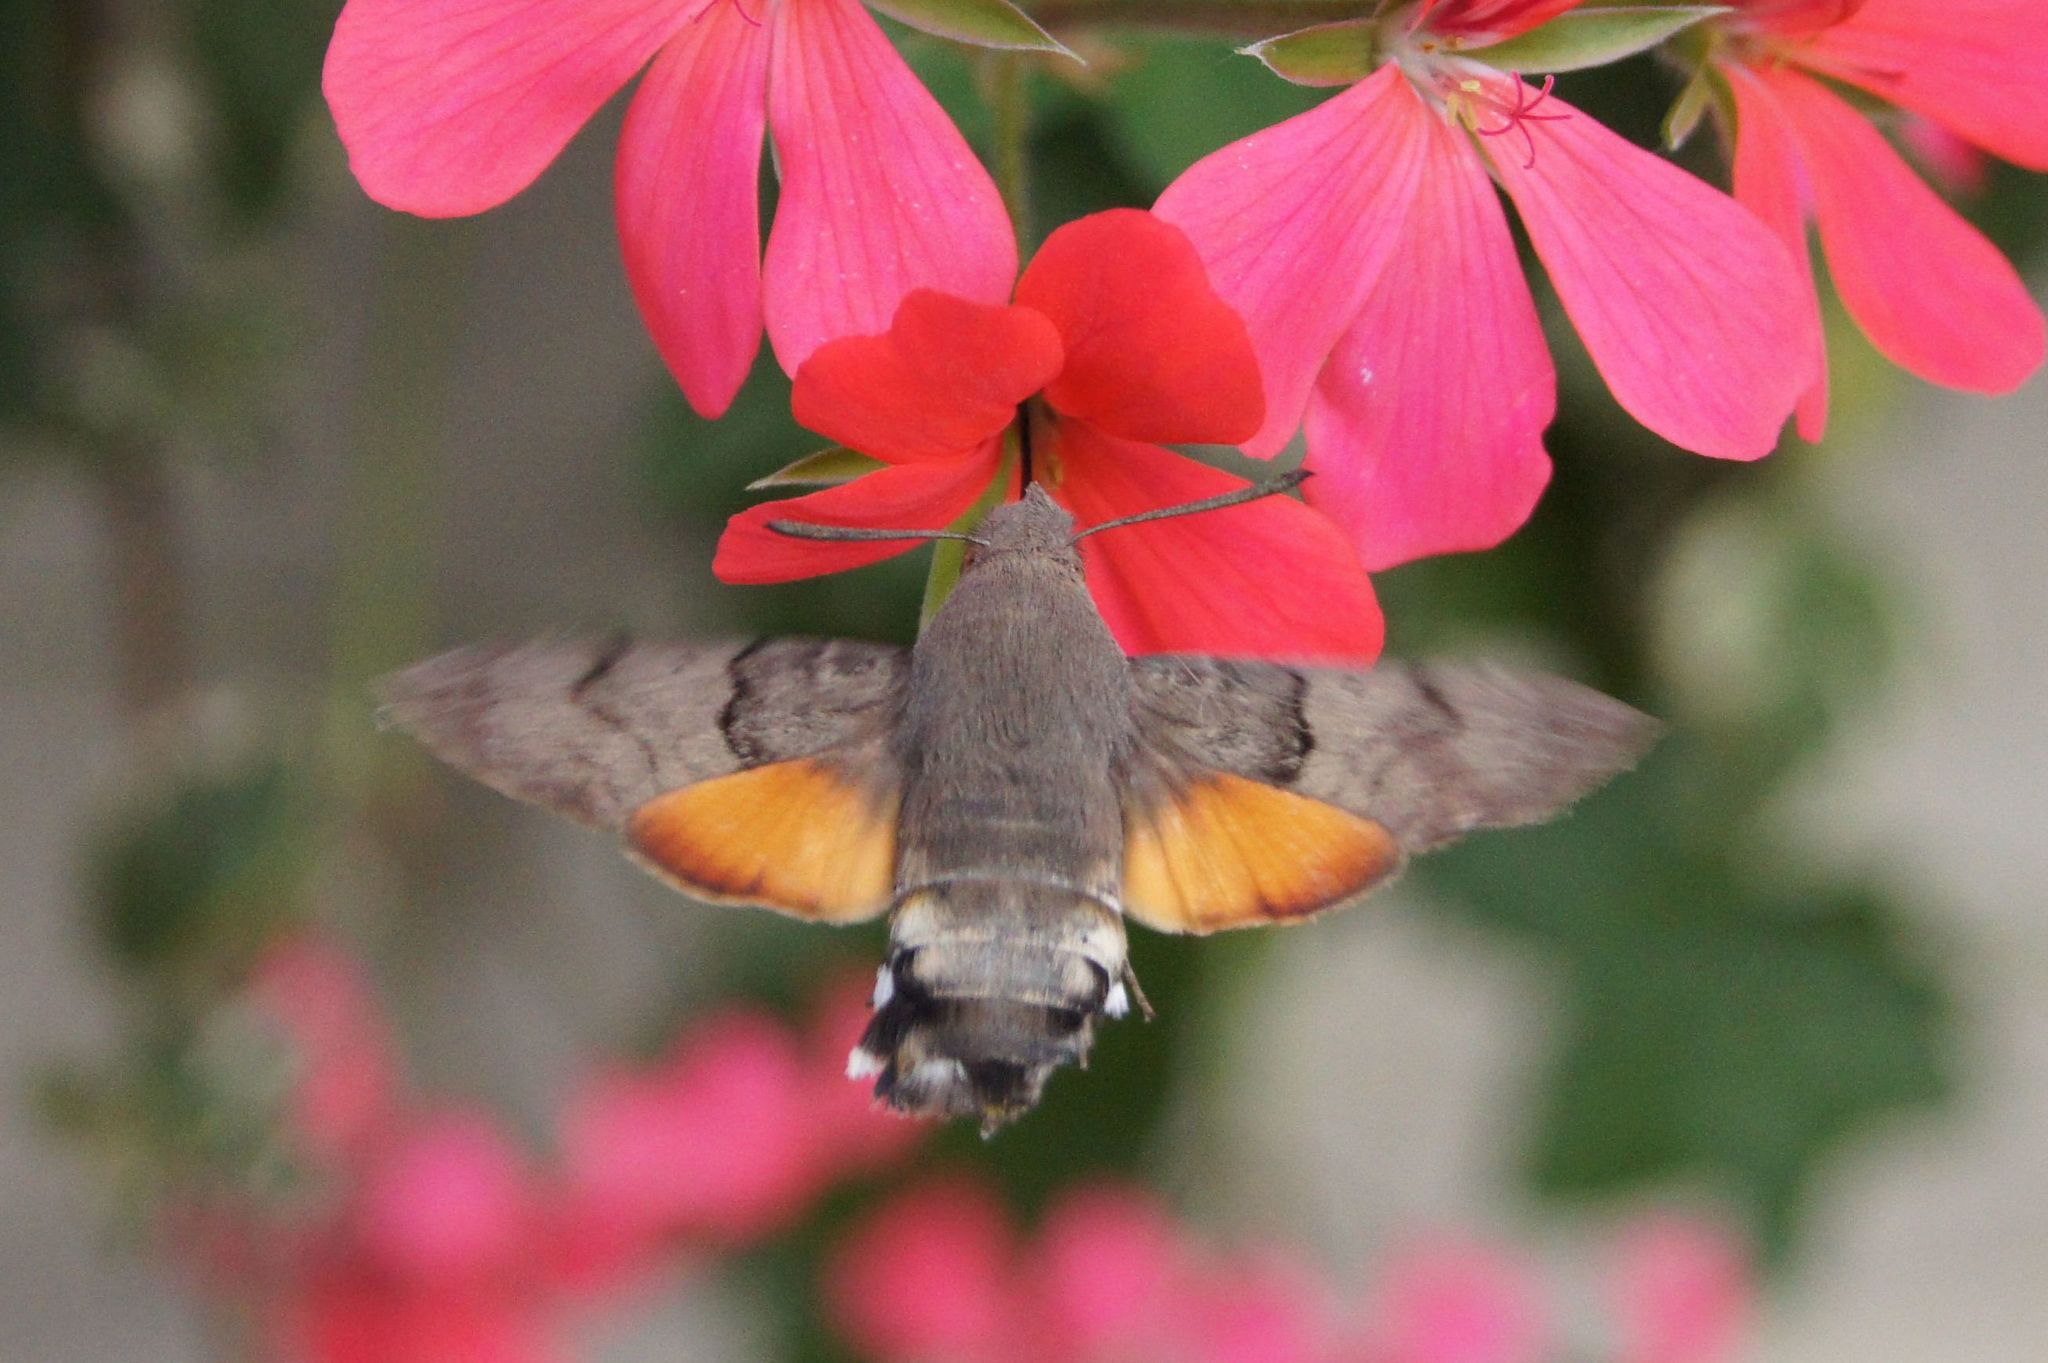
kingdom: Animalia
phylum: Arthropoda
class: Insecta
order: Lepidoptera
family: Sphingidae
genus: Macroglossum
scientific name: Macroglossum stellatarum
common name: Humming-bird hawk-moth
